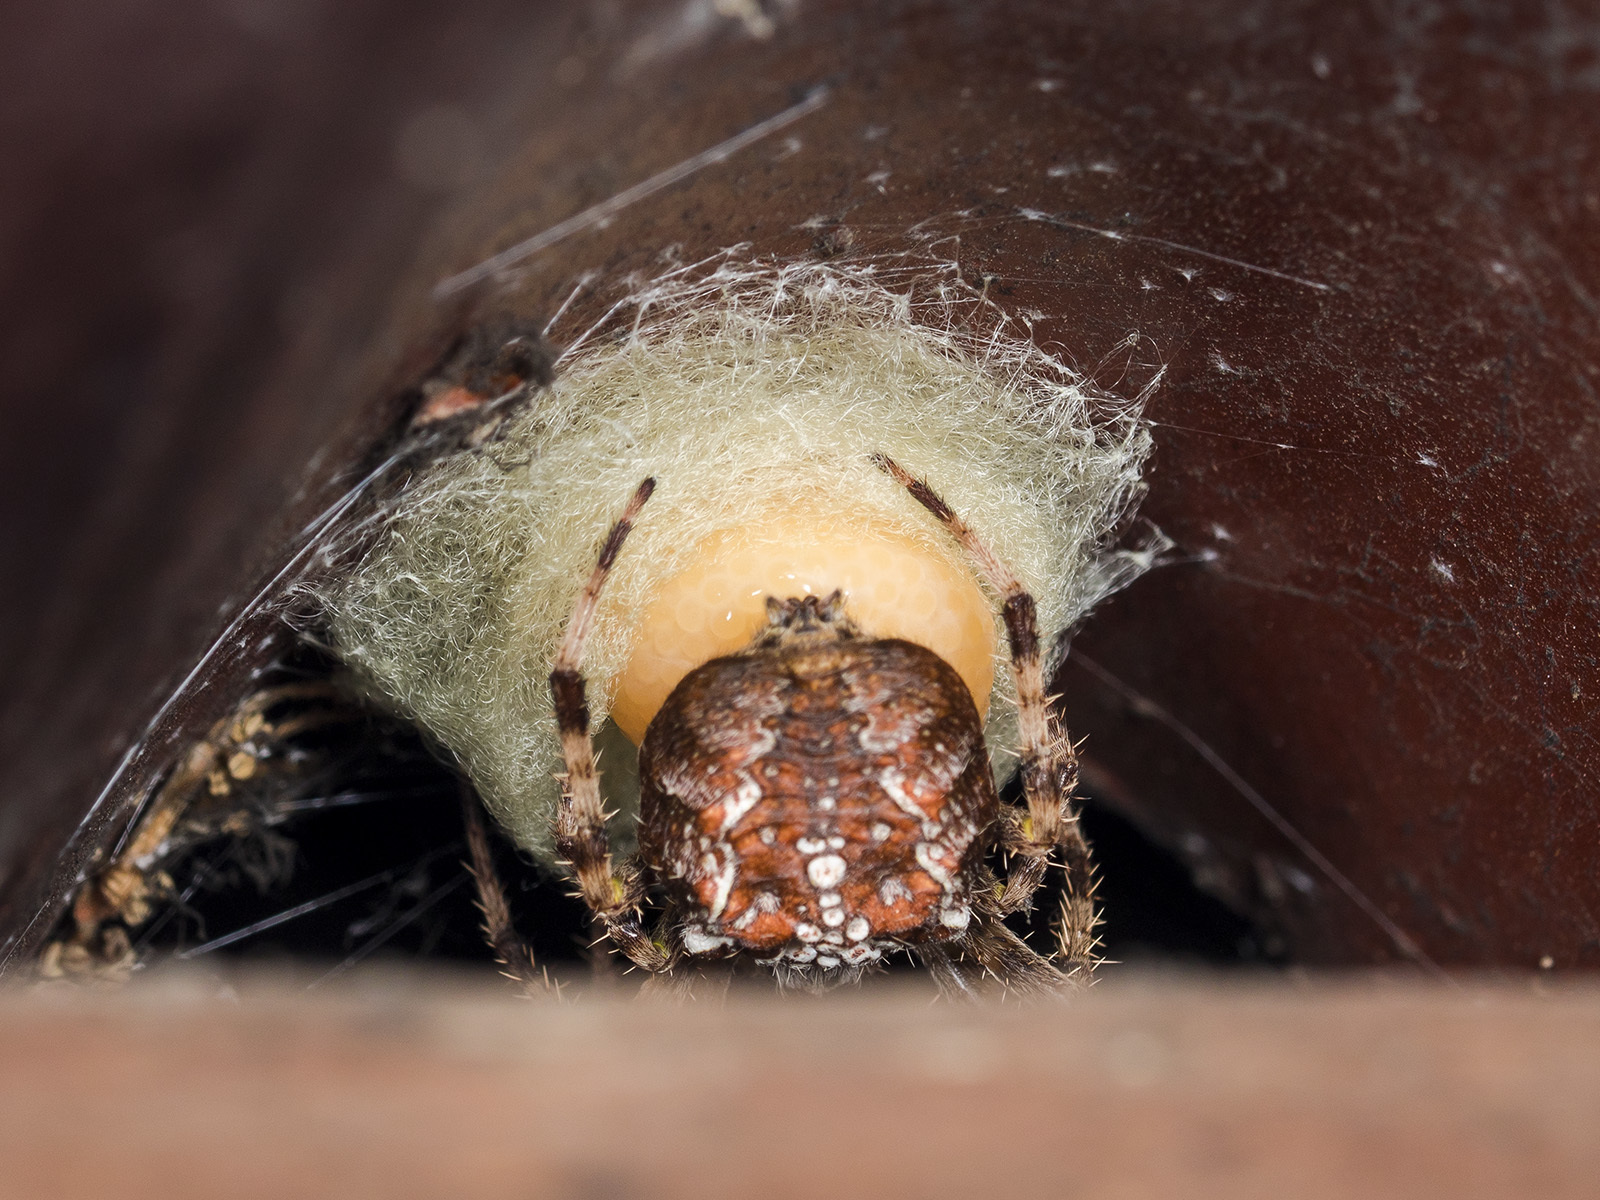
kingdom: Animalia
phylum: Arthropoda
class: Arachnida
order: Araneae
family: Araneidae
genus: Araneus
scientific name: Araneus diadematus
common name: Cross orbweaver
